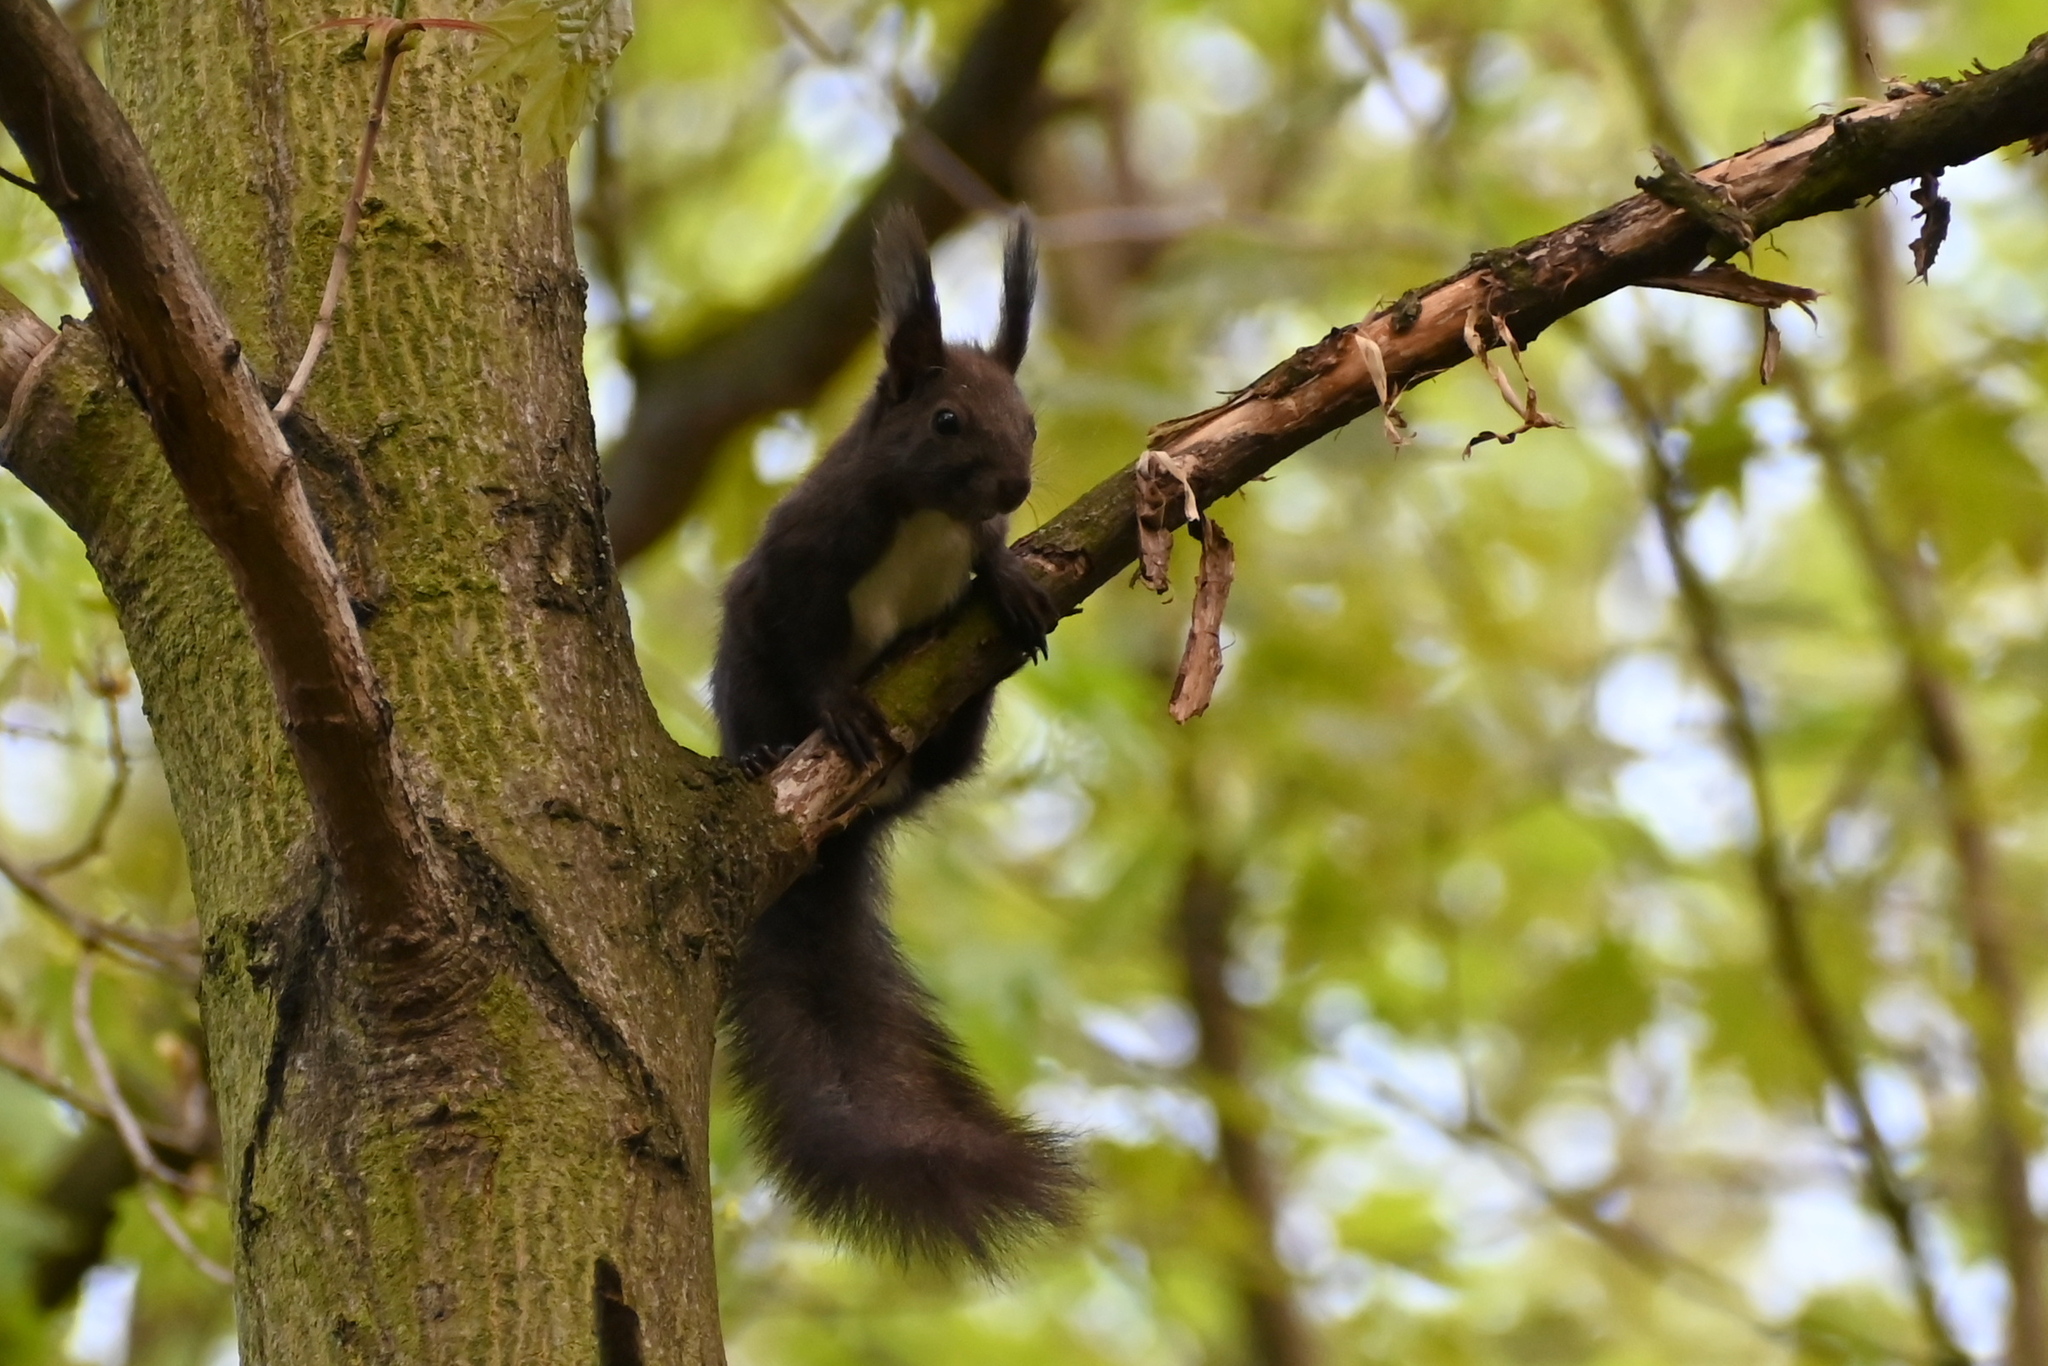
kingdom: Animalia
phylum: Chordata
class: Mammalia
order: Rodentia
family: Sciuridae
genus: Sciurus
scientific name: Sciurus vulgaris
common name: Eurasian red squirrel
